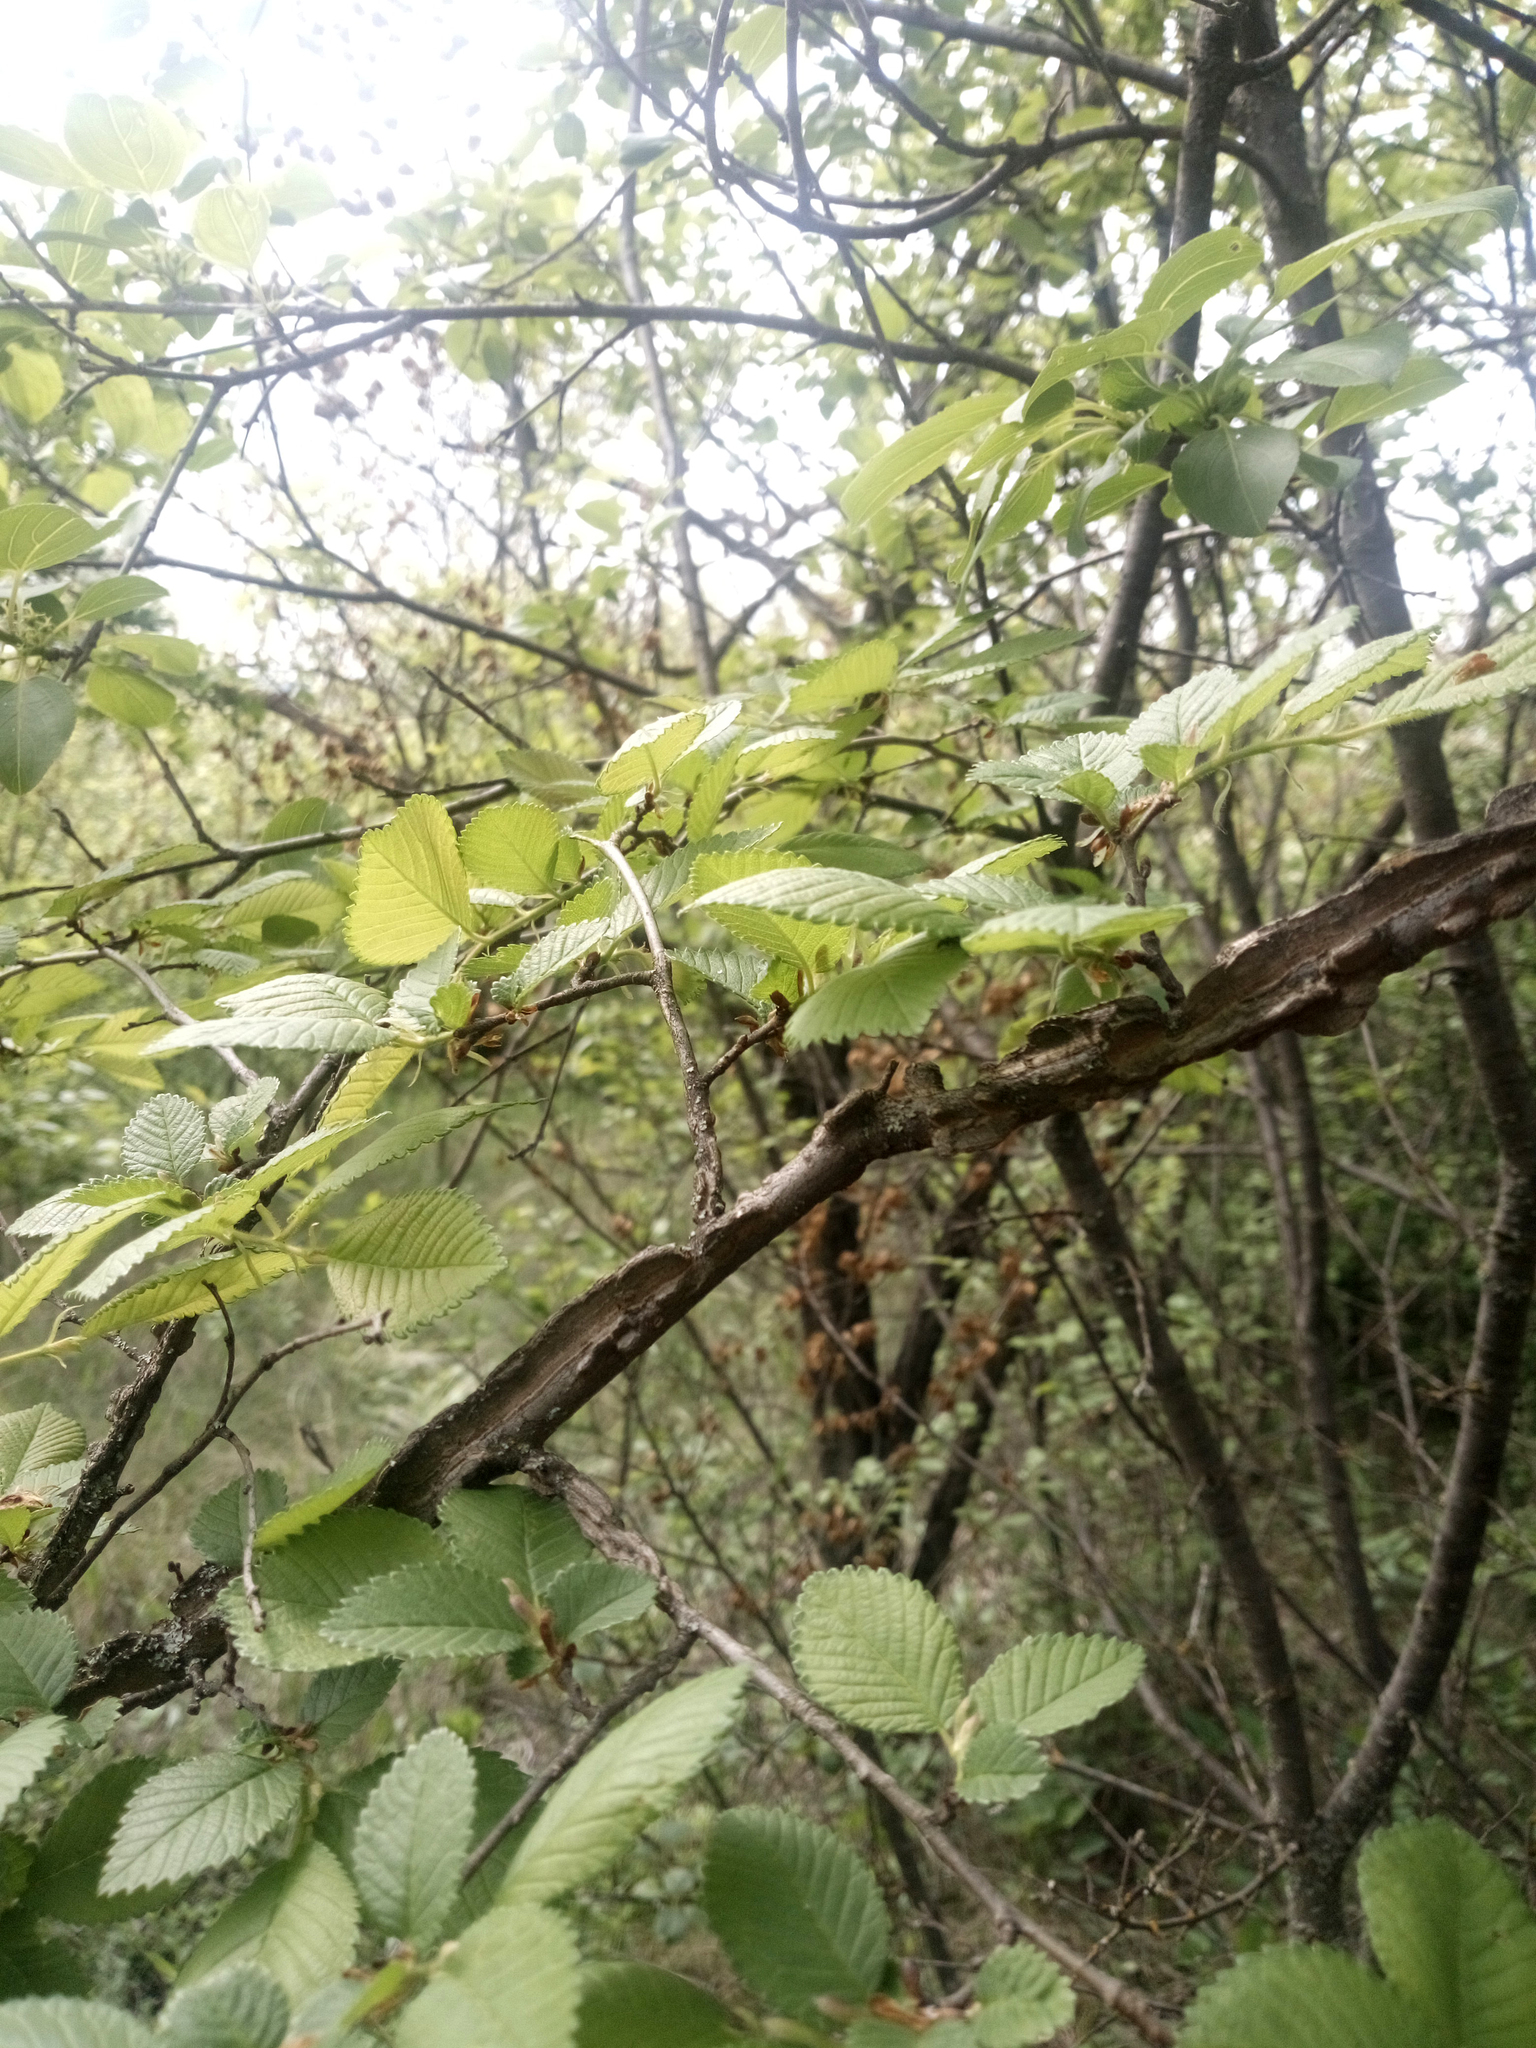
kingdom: Plantae
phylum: Tracheophyta
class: Magnoliopsida
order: Rosales
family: Ulmaceae
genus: Ulmus
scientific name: Ulmus minor
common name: Small-leaved elm
